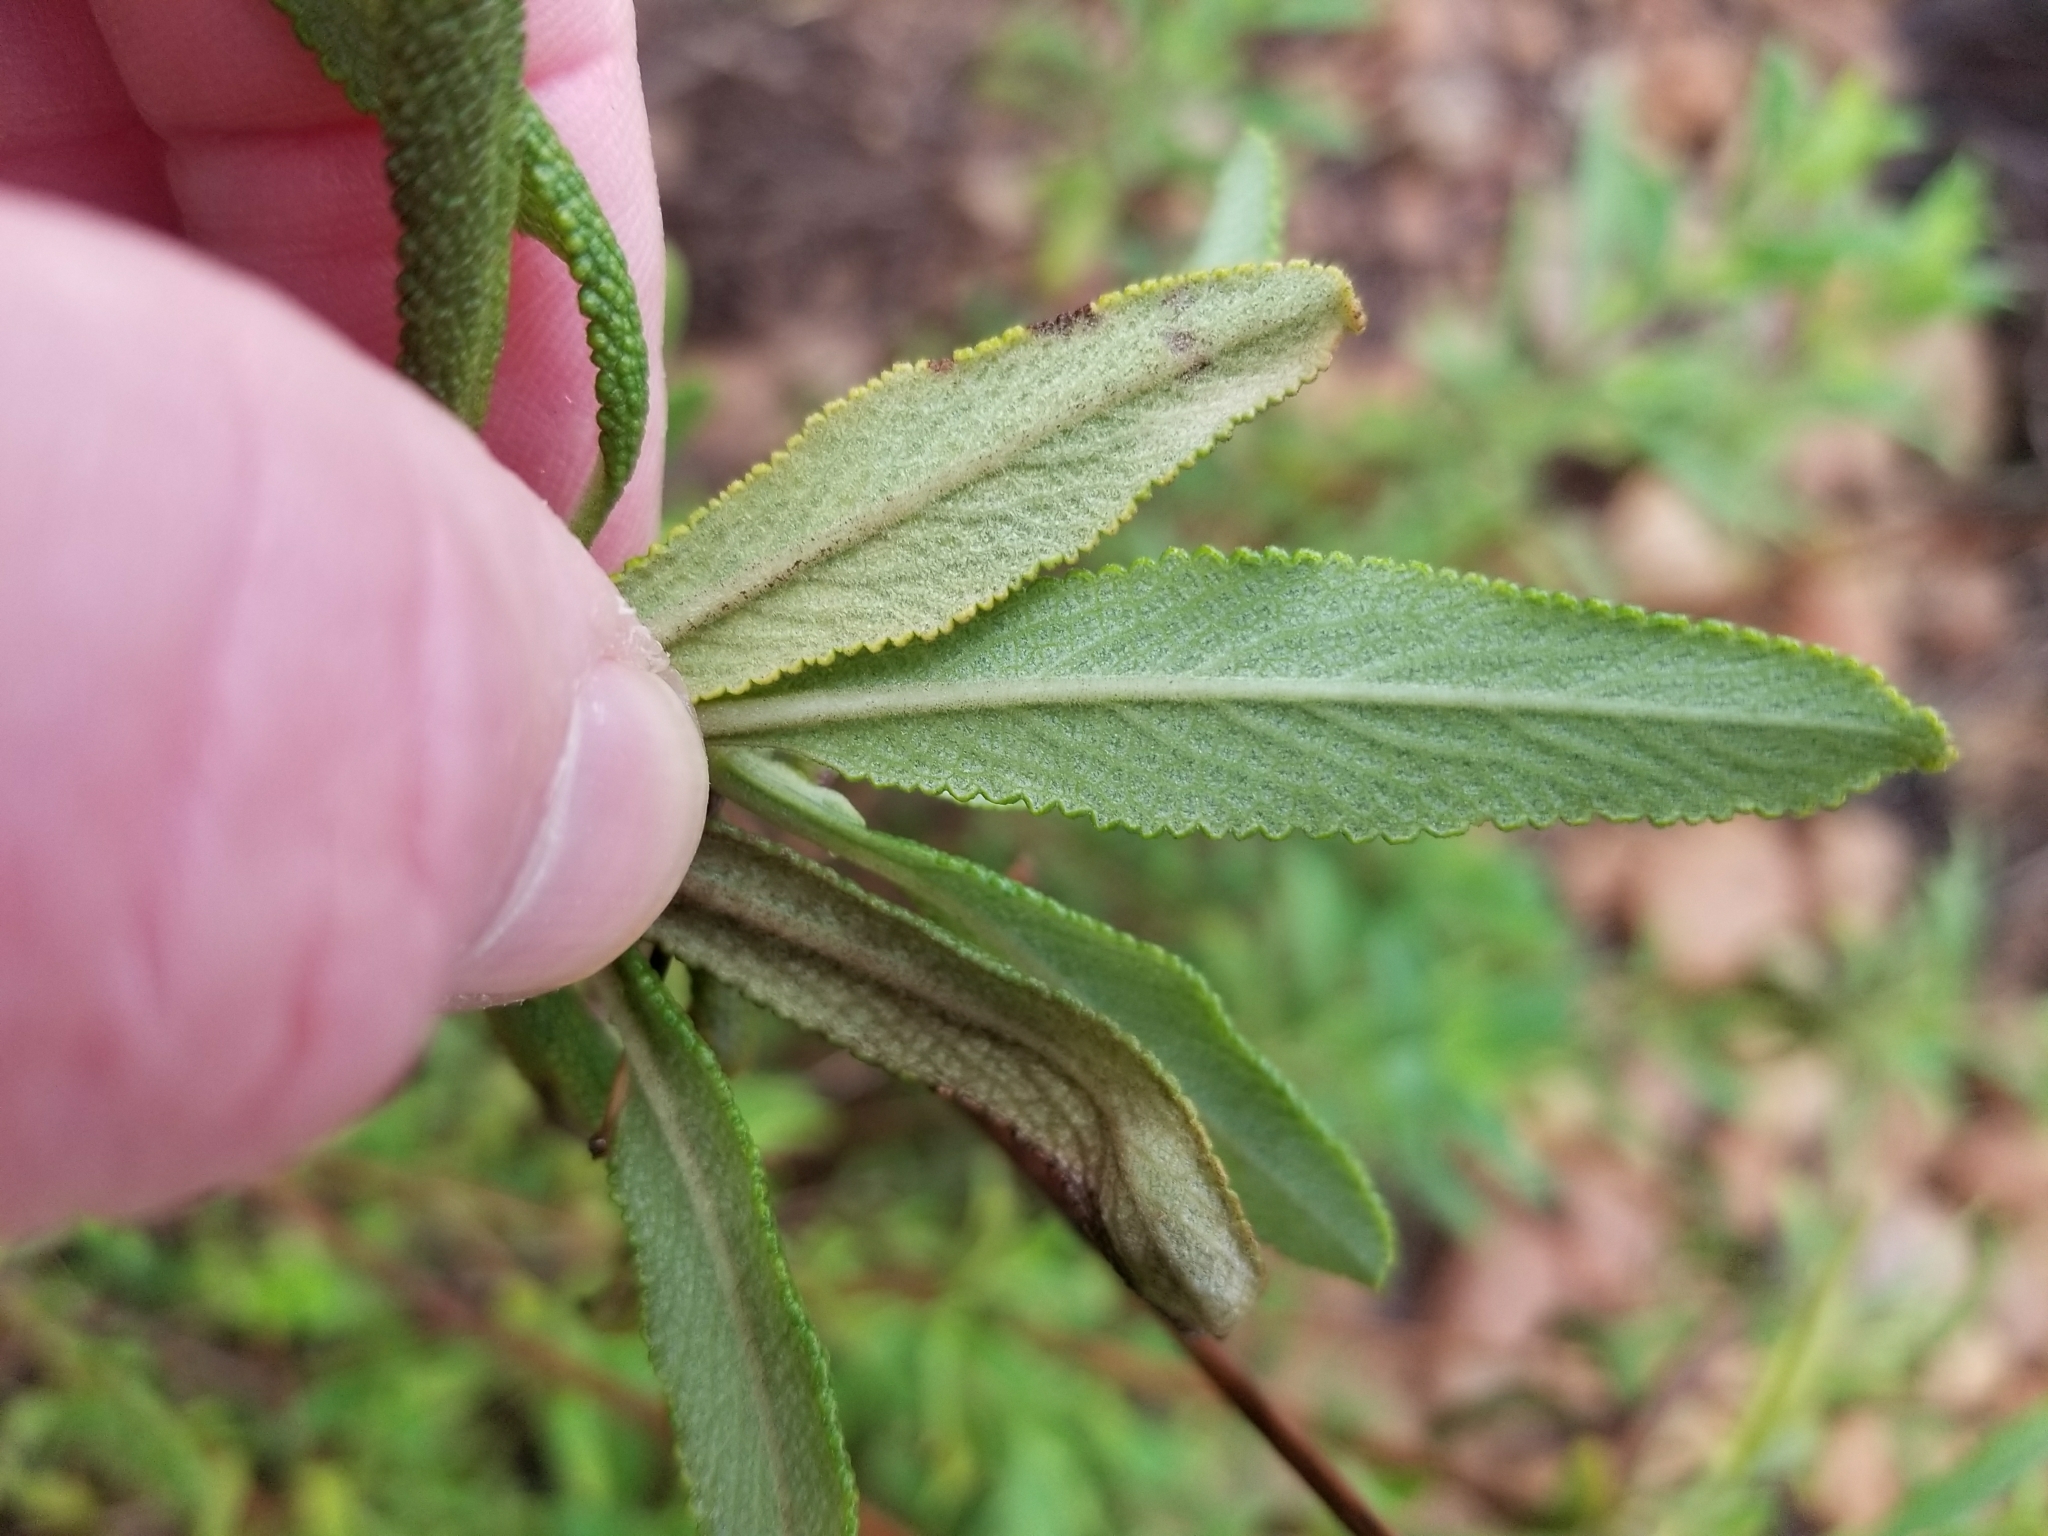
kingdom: Plantae
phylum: Tracheophyta
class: Magnoliopsida
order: Lamiales
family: Lamiaceae
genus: Salvia
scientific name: Salvia mellifera
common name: Black sage
